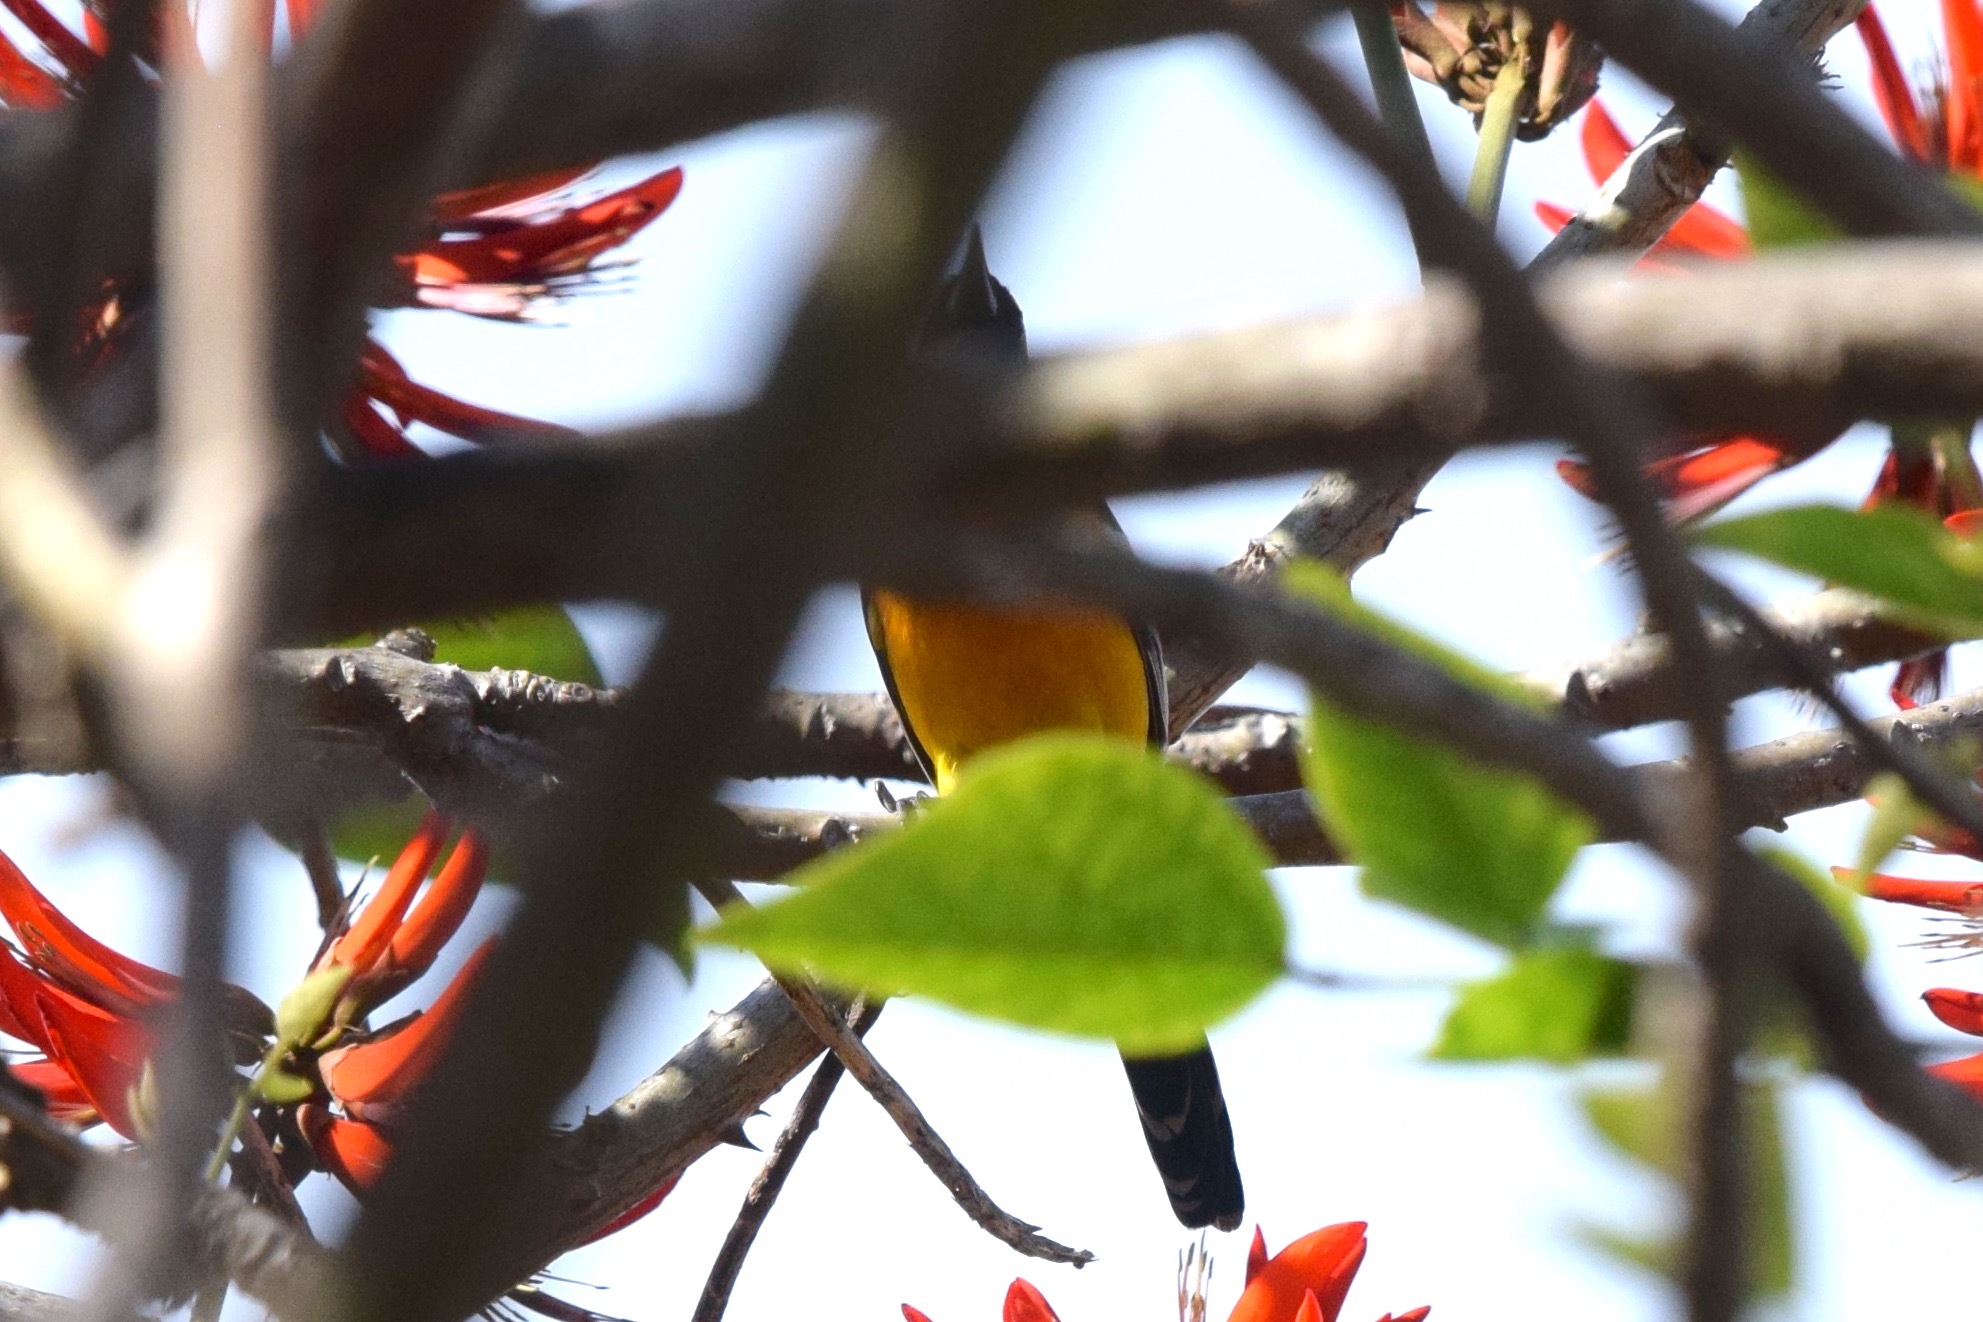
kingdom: Animalia
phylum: Chordata
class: Aves
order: Passeriformes
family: Icteridae
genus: Icterus
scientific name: Icterus cucullatus
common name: Hooded oriole
